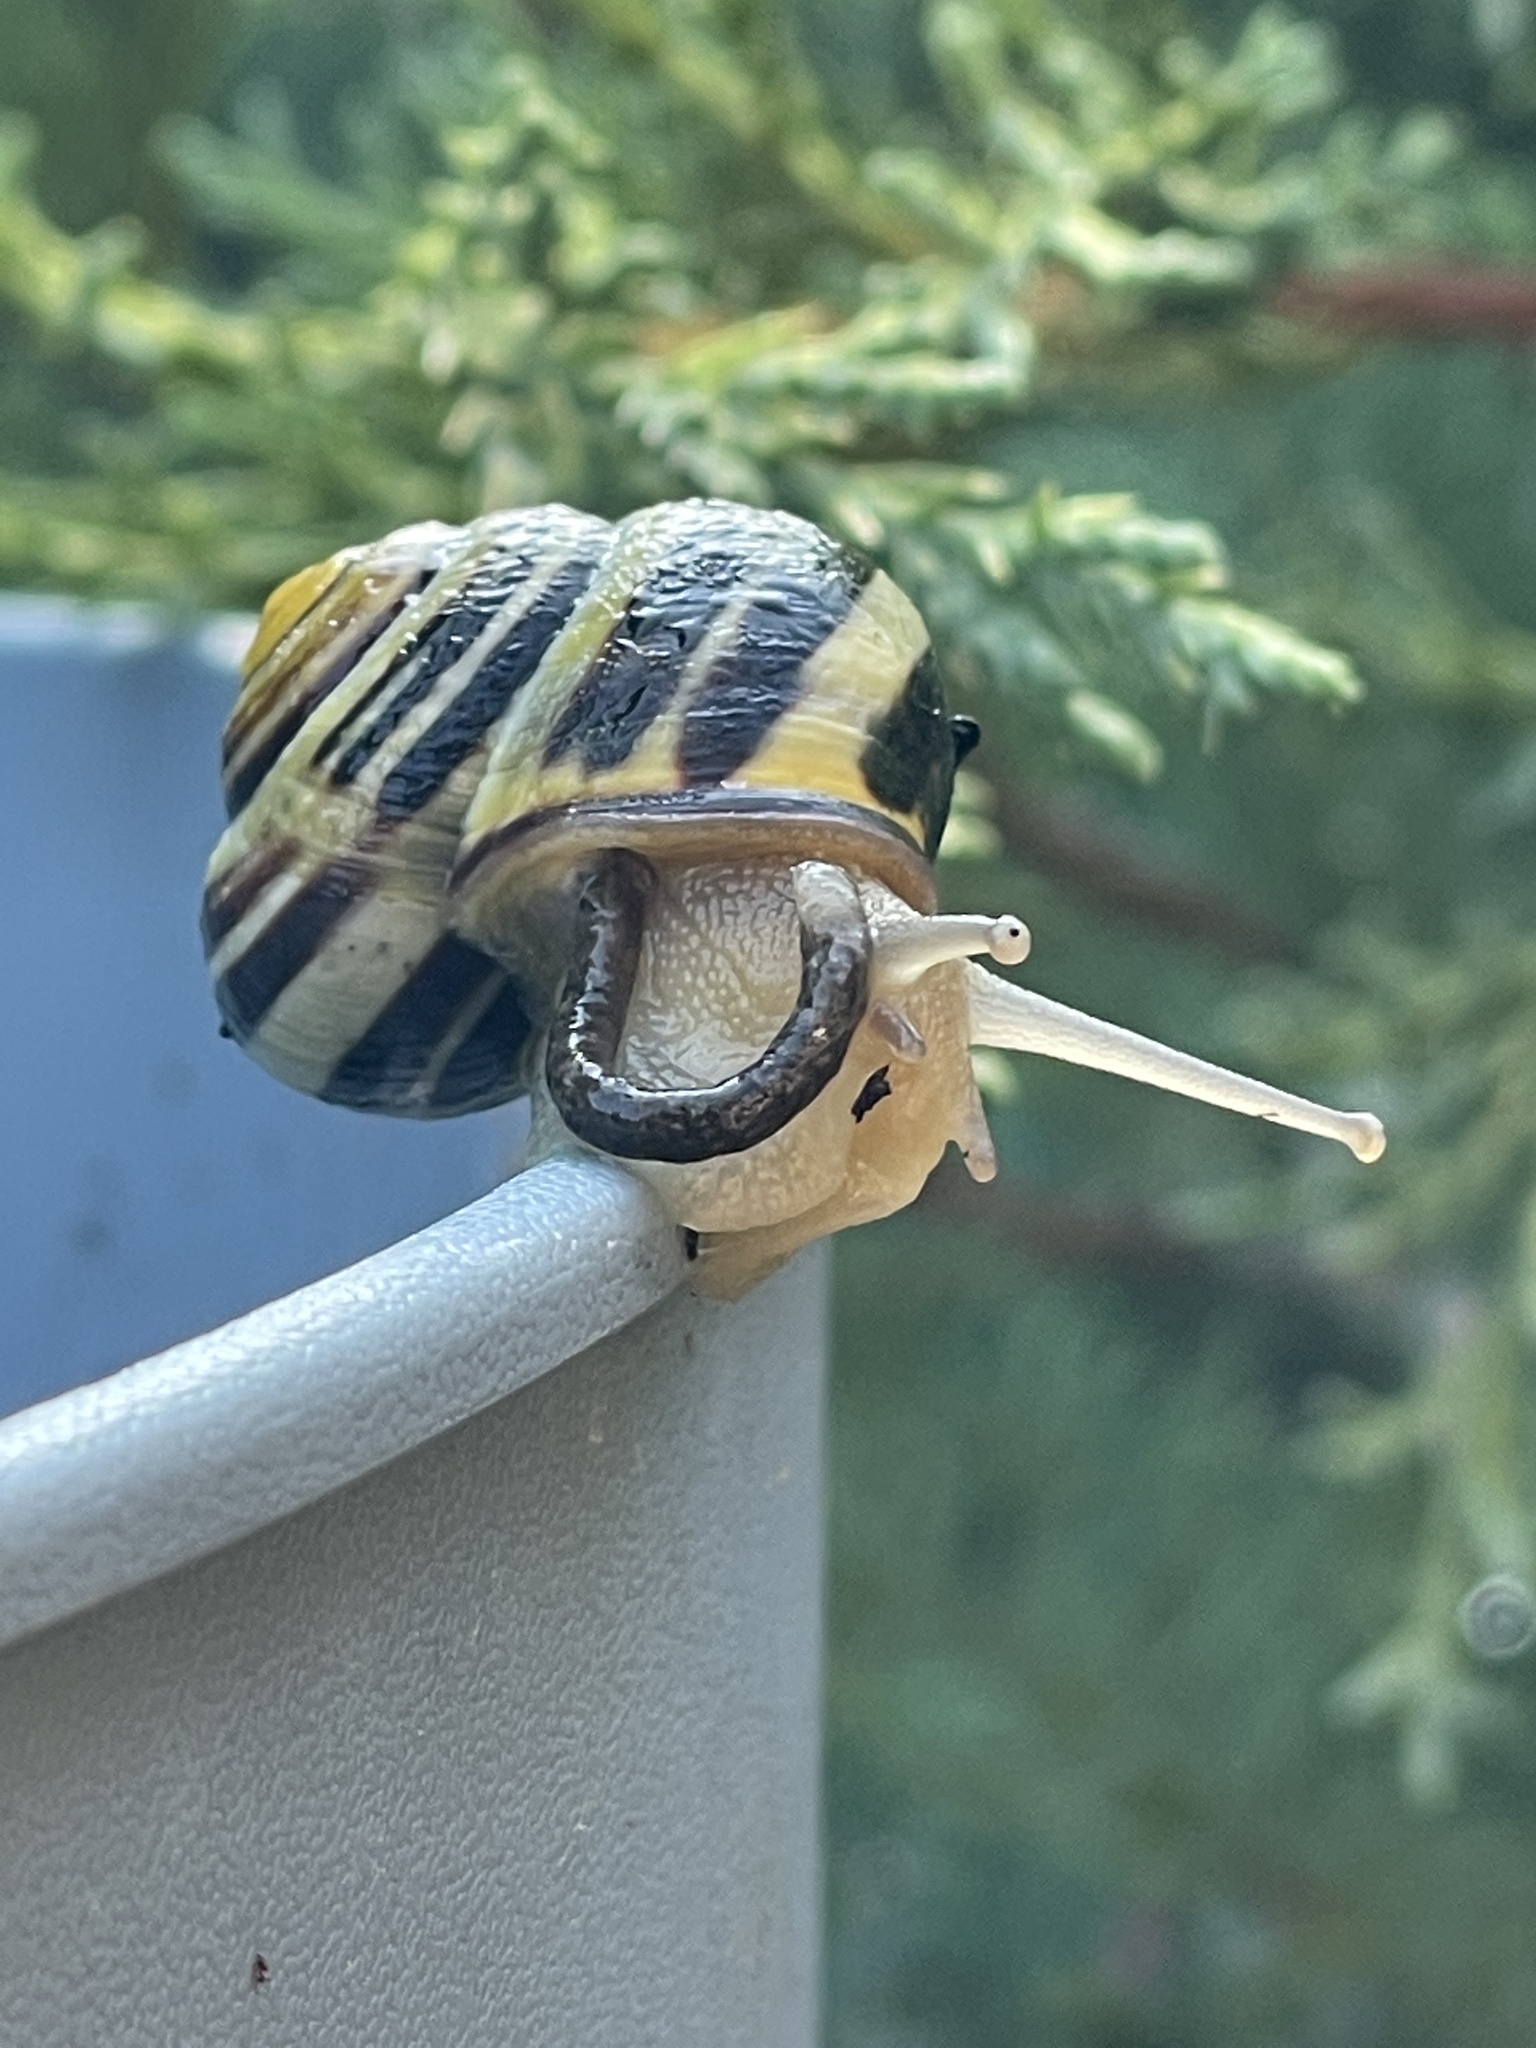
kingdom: Animalia
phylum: Mollusca
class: Gastropoda
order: Stylommatophora
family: Helicidae
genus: Cepaea
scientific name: Cepaea nemoralis
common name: Grovesnail
